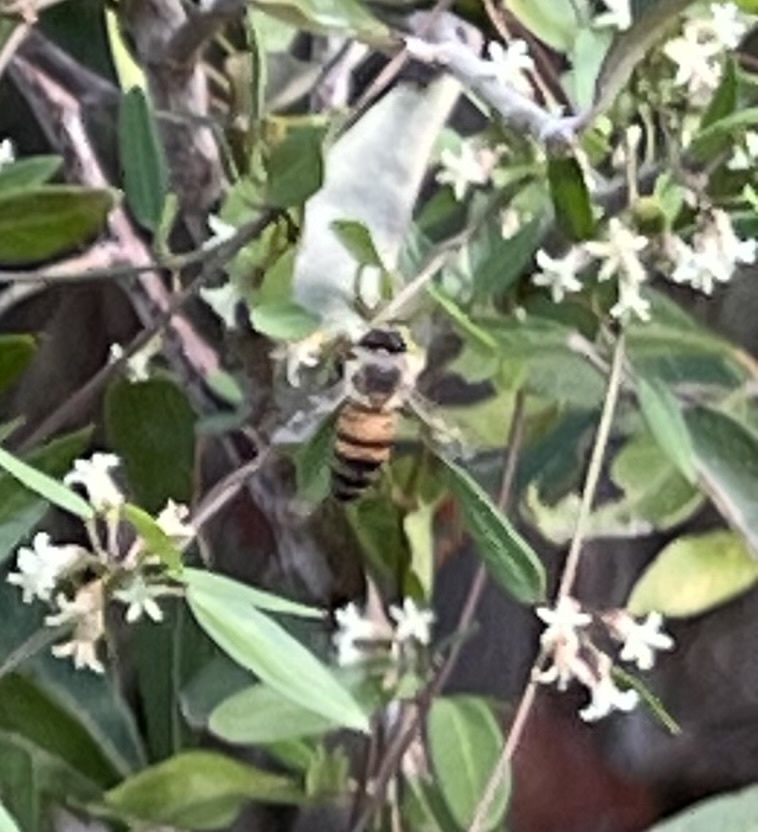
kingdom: Animalia
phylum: Arthropoda
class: Insecta
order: Hymenoptera
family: Apidae
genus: Apis
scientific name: Apis mellifera
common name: Honey bee
